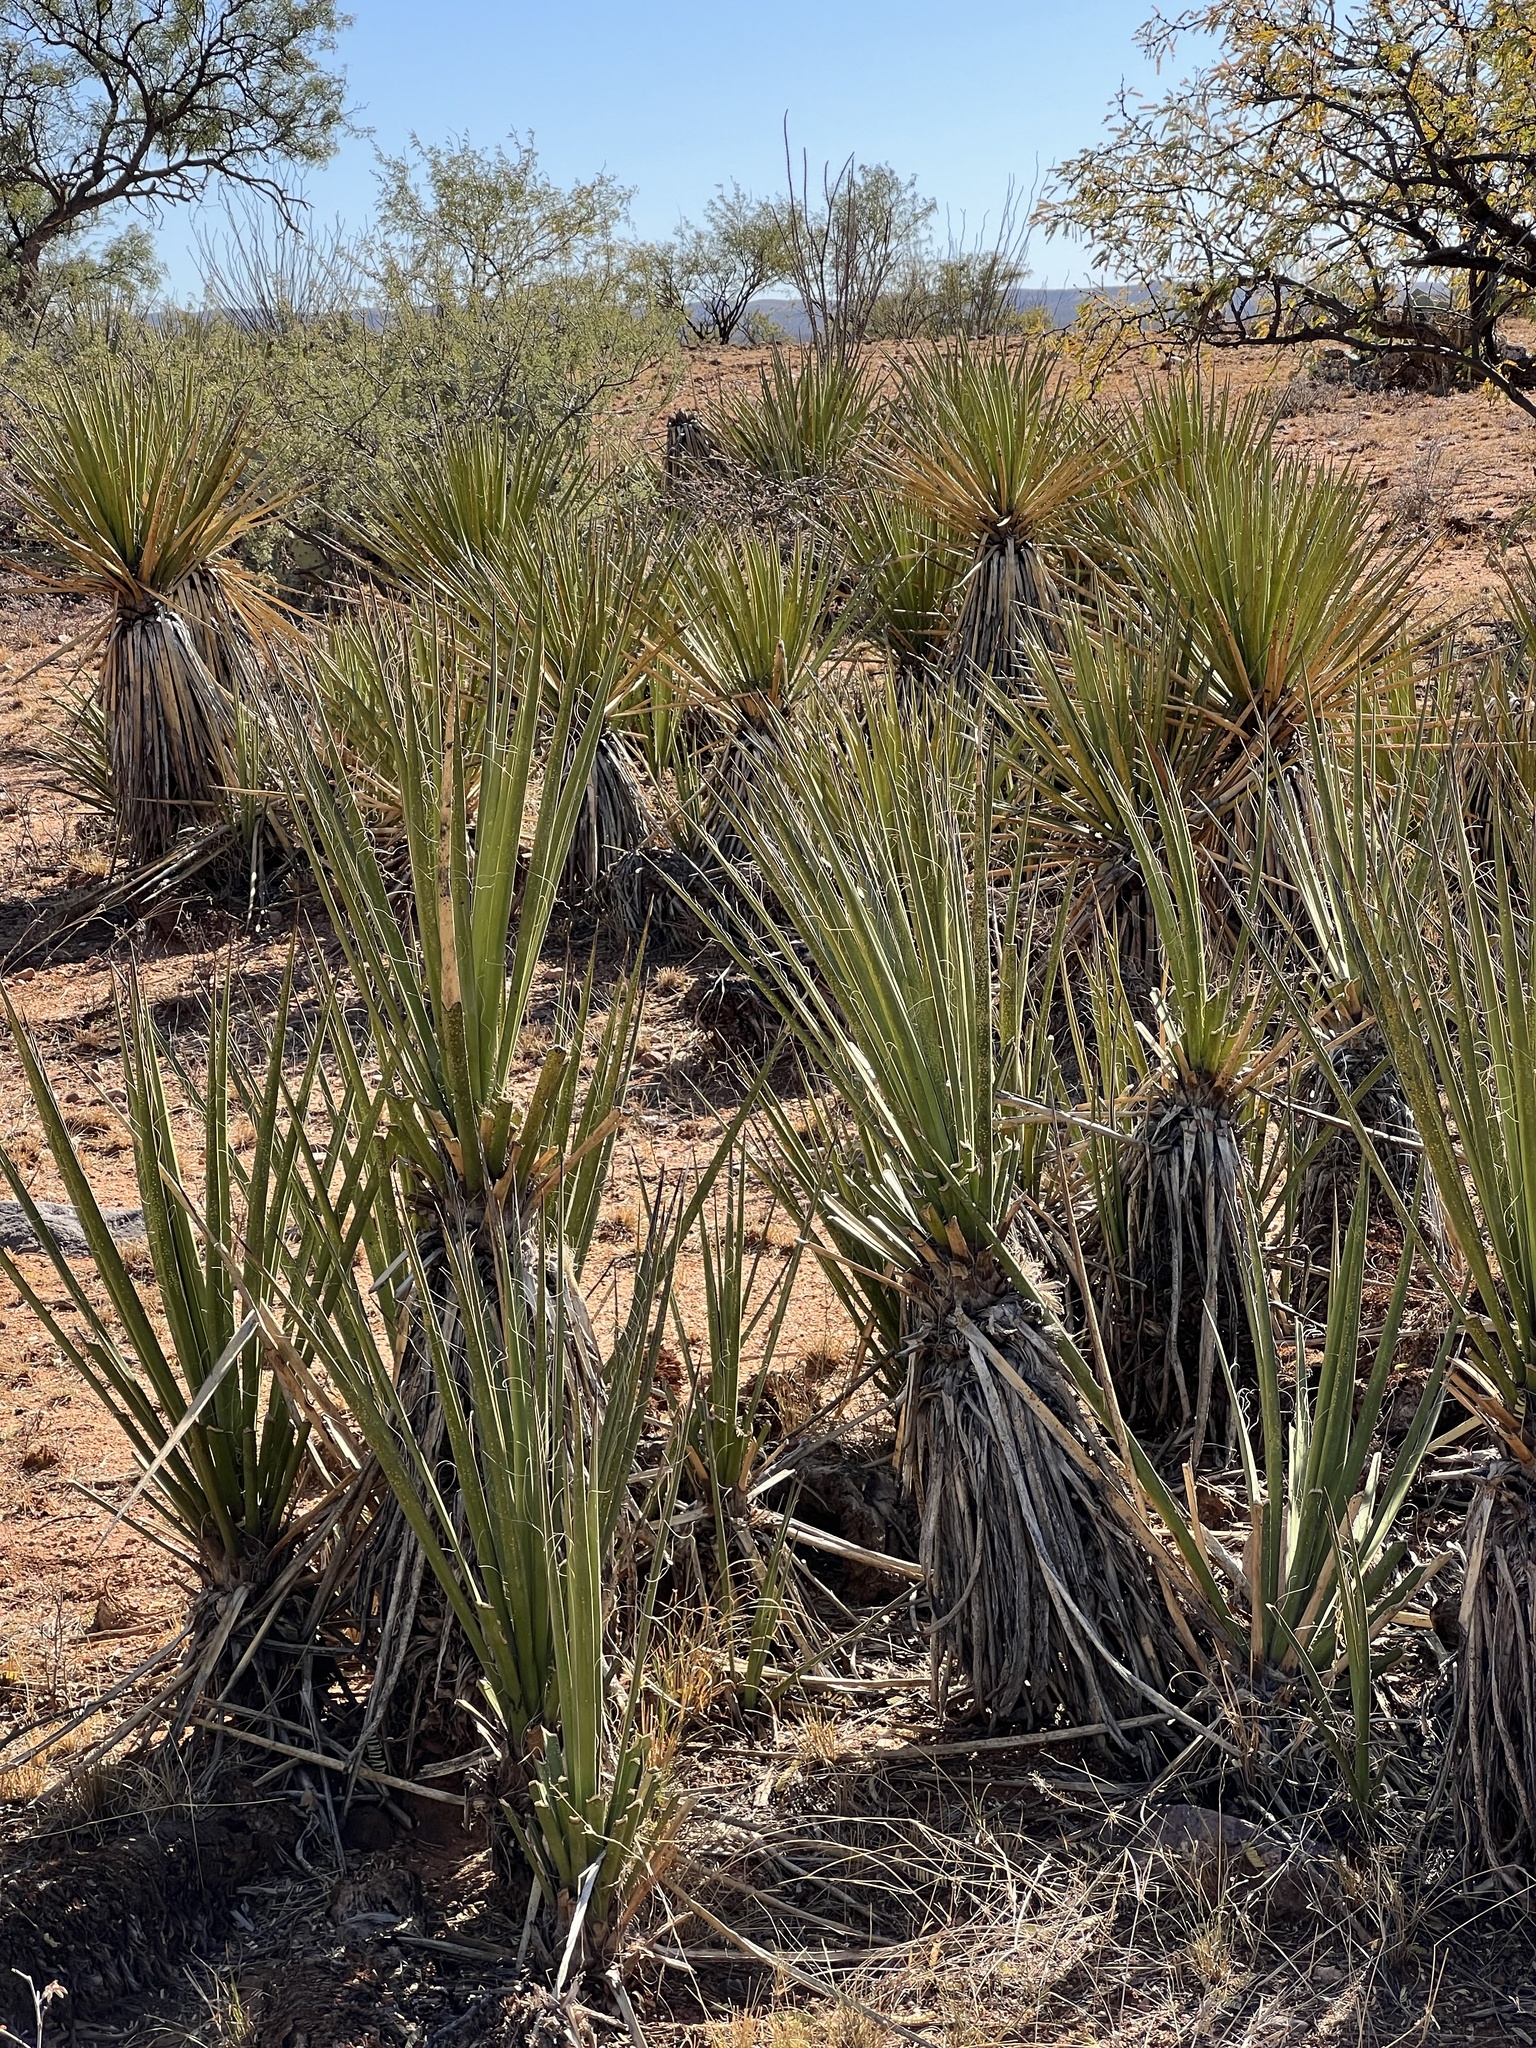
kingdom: Plantae
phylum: Tracheophyta
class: Liliopsida
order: Asparagales
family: Asparagaceae
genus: Yucca
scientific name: Yucca baccata
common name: Banana yucca
